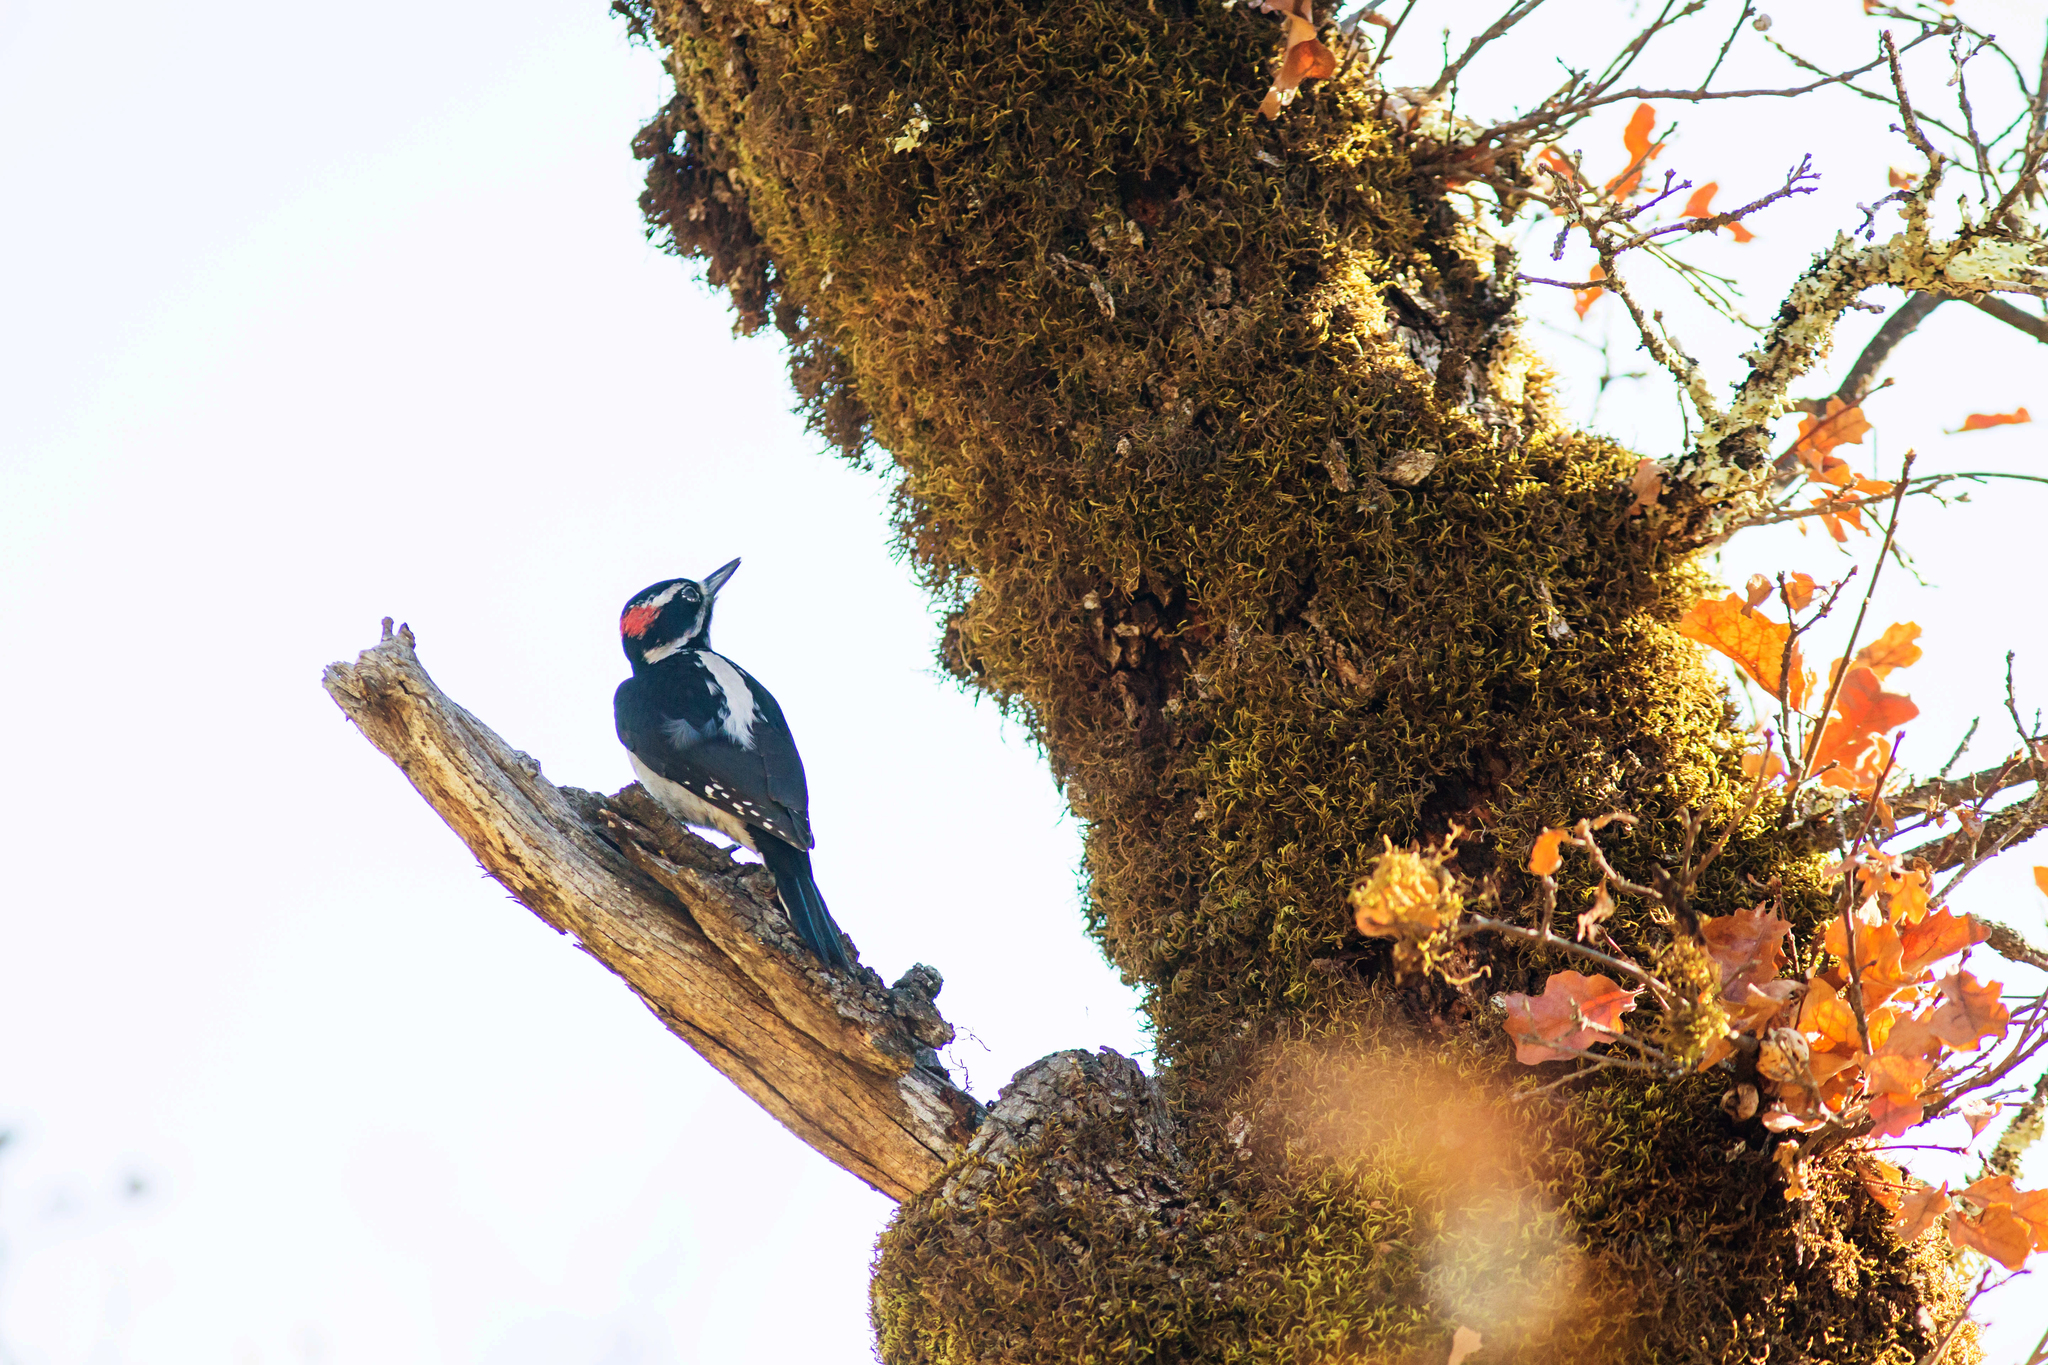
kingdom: Animalia
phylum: Chordata
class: Aves
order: Piciformes
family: Picidae
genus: Leuconotopicus
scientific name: Leuconotopicus villosus
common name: Hairy woodpecker
